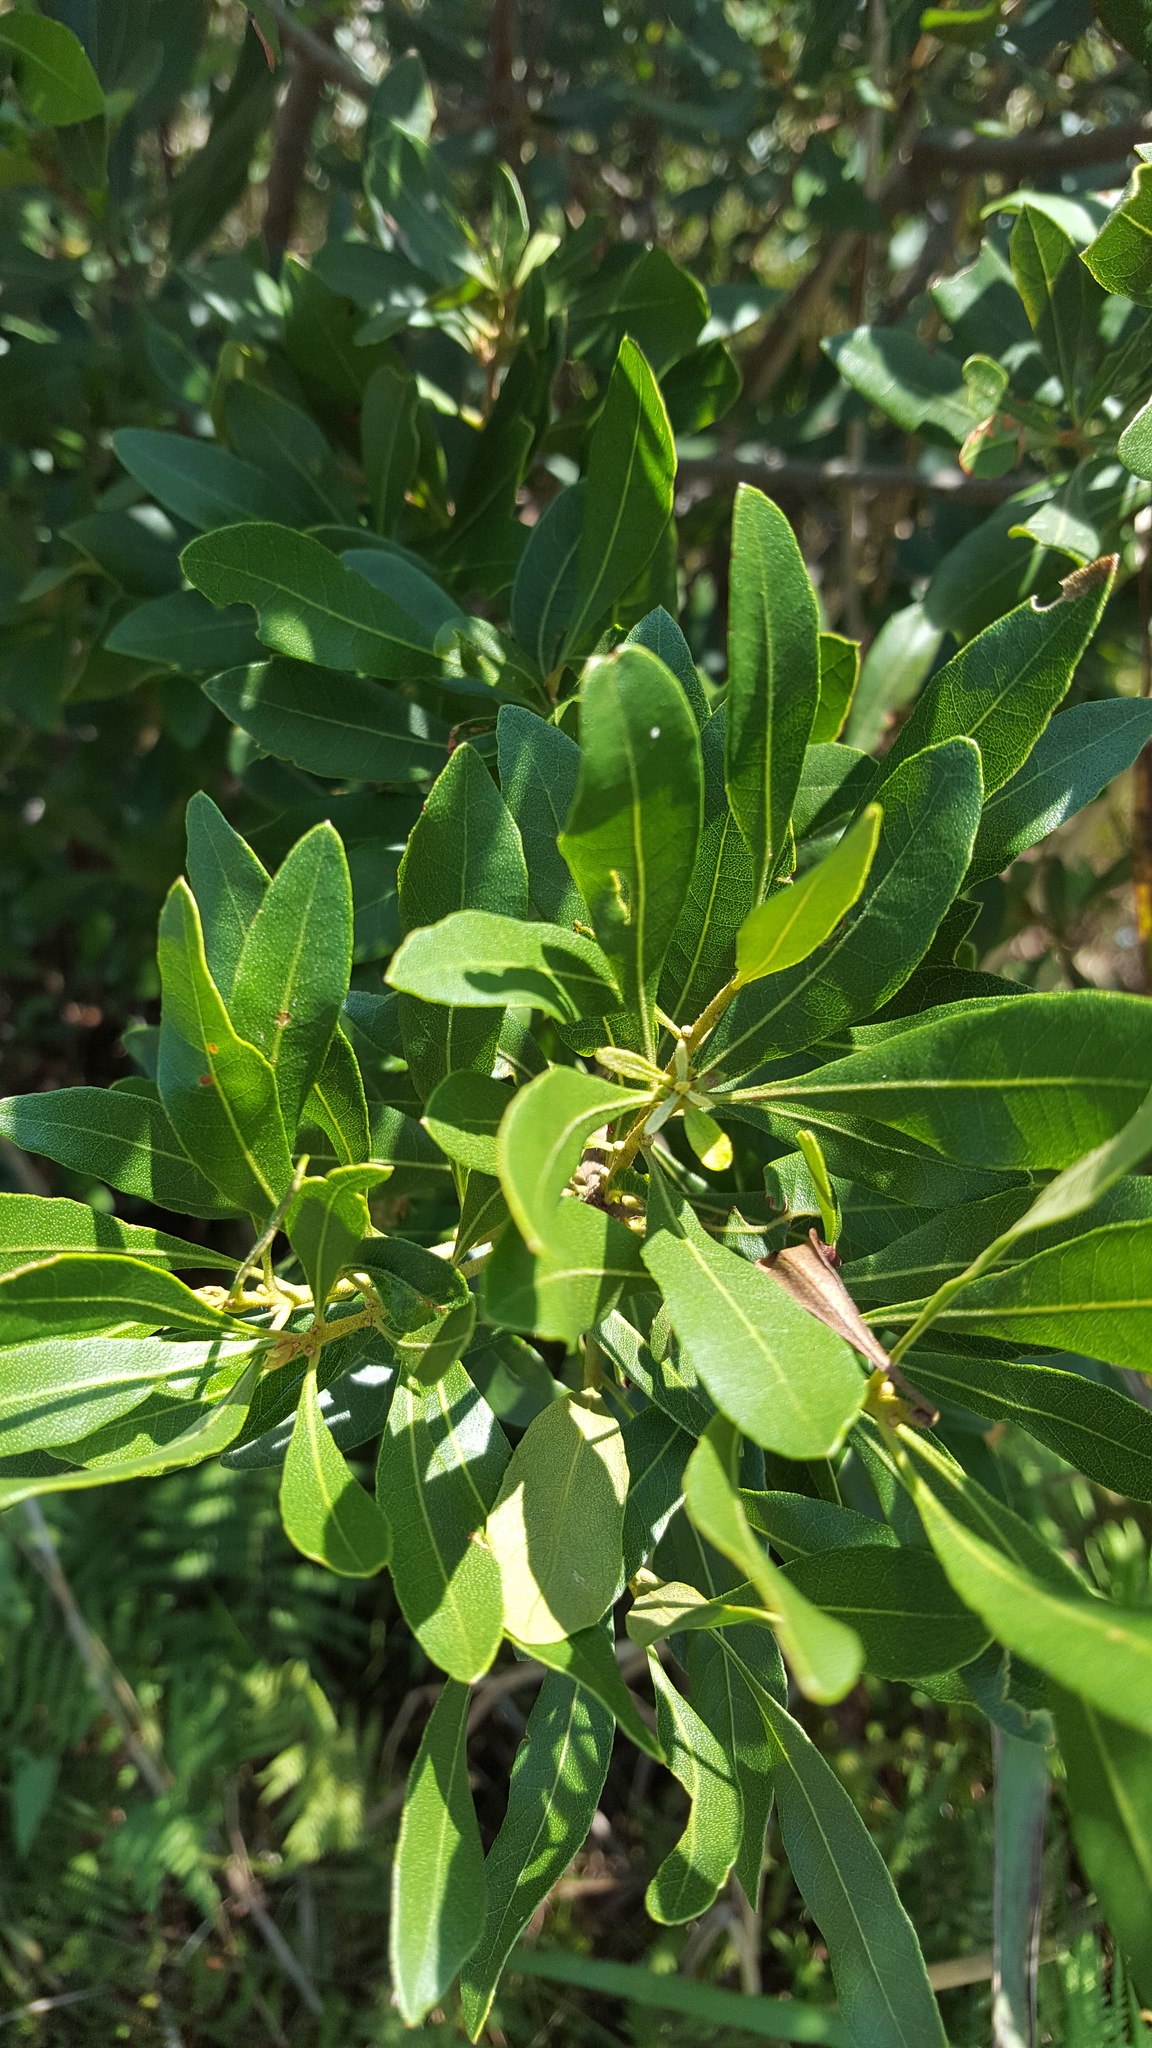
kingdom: Plantae
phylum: Tracheophyta
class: Magnoliopsida
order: Fagales
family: Myricaceae
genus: Morella
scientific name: Morella cerifera
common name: Wax myrtle
